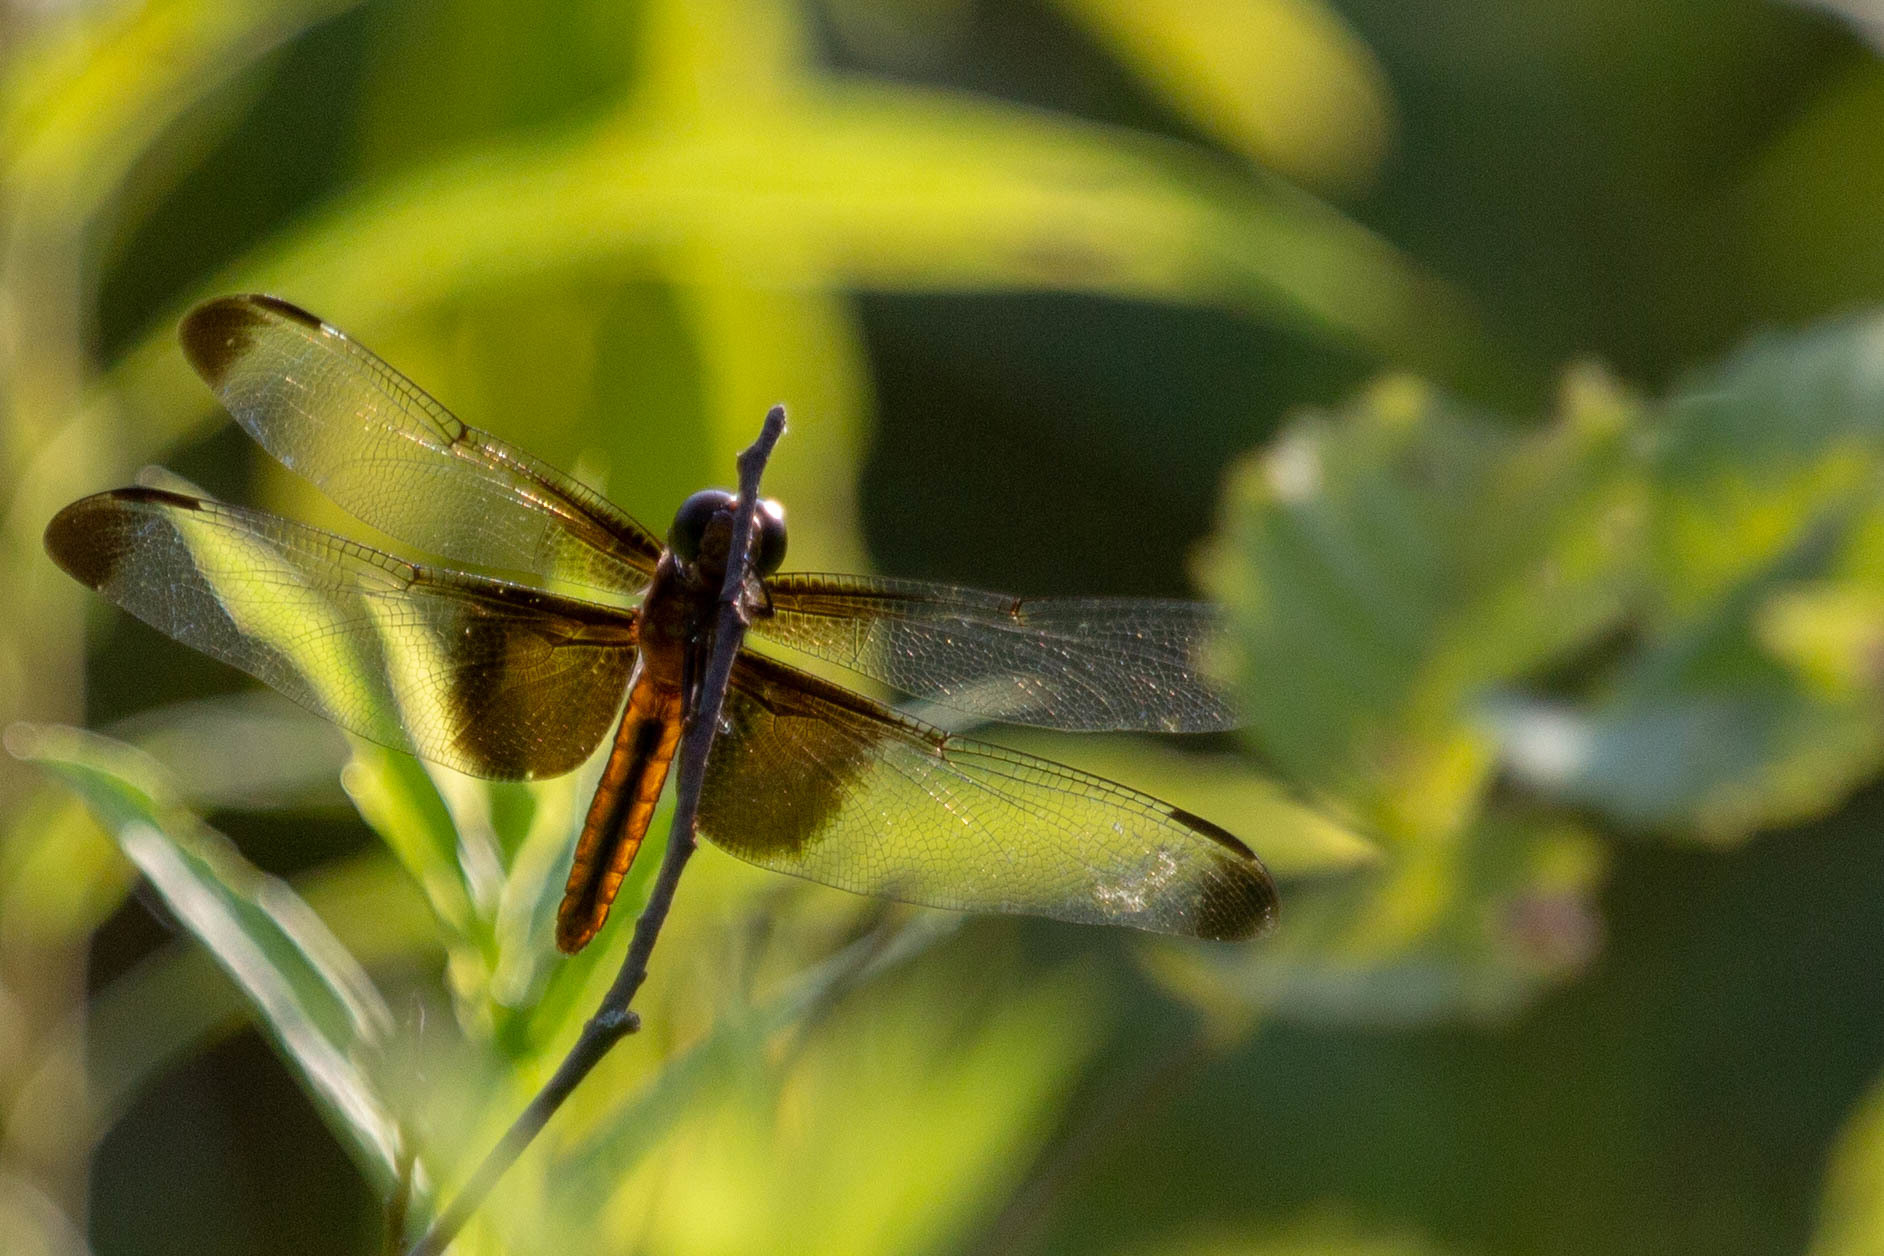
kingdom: Animalia
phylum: Arthropoda
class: Insecta
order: Odonata
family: Libellulidae
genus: Libellula
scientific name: Libellula luctuosa
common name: Widow skimmer
